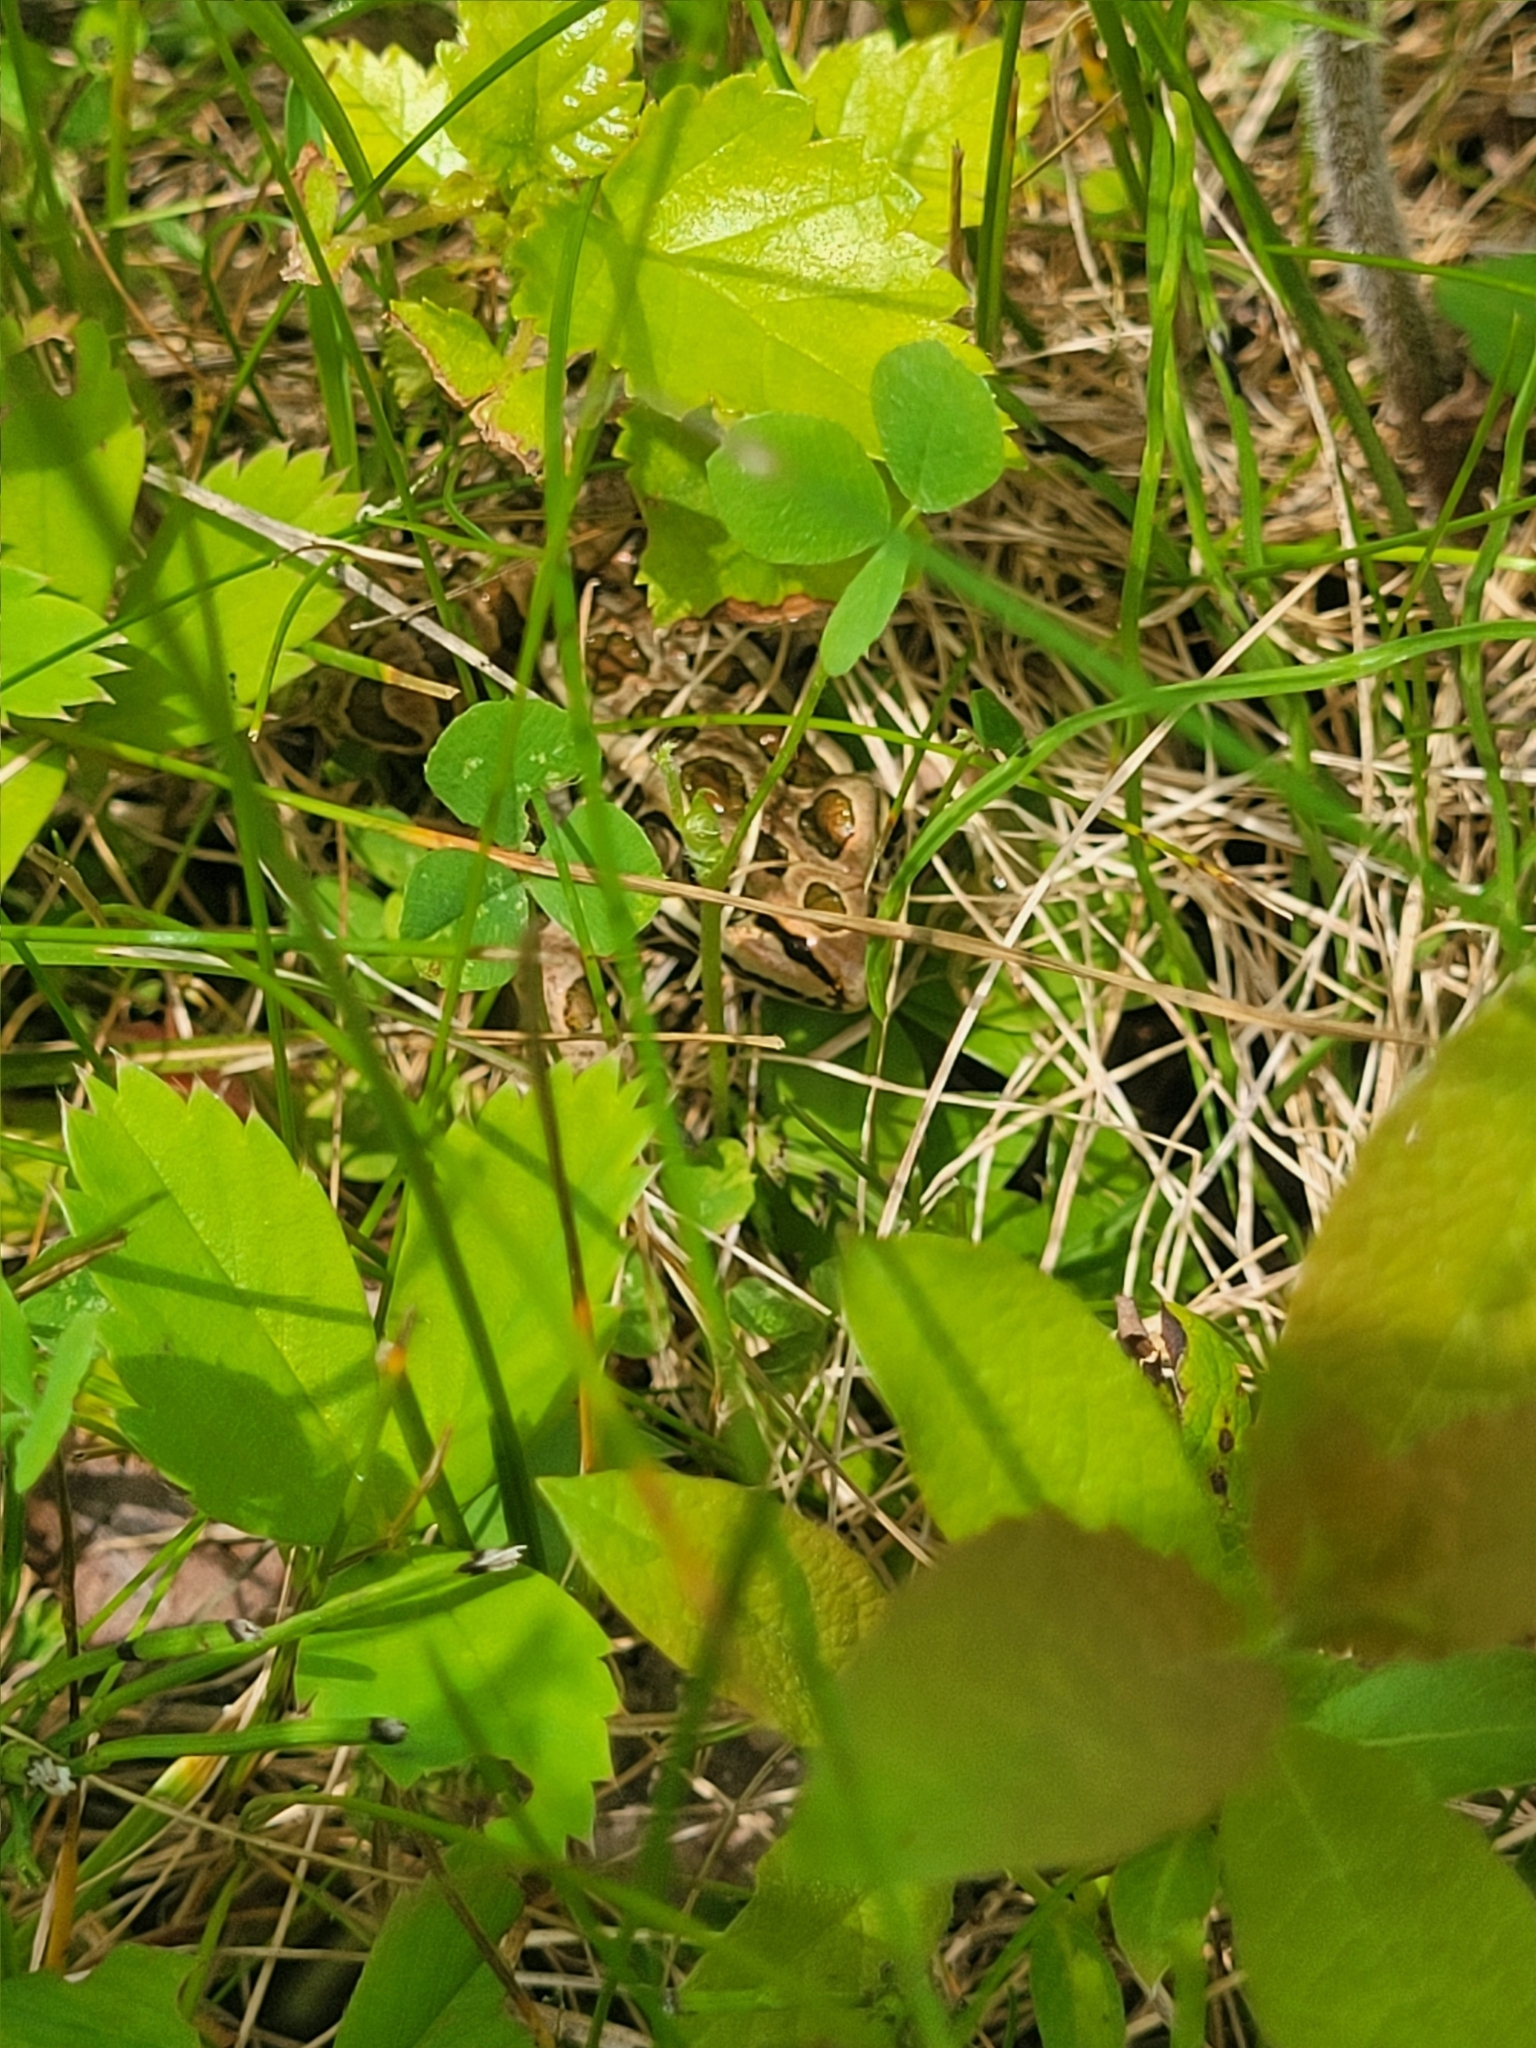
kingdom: Animalia
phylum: Chordata
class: Amphibia
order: Anura
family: Ranidae
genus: Lithobates
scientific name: Lithobates palustris
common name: Pickerel frog
